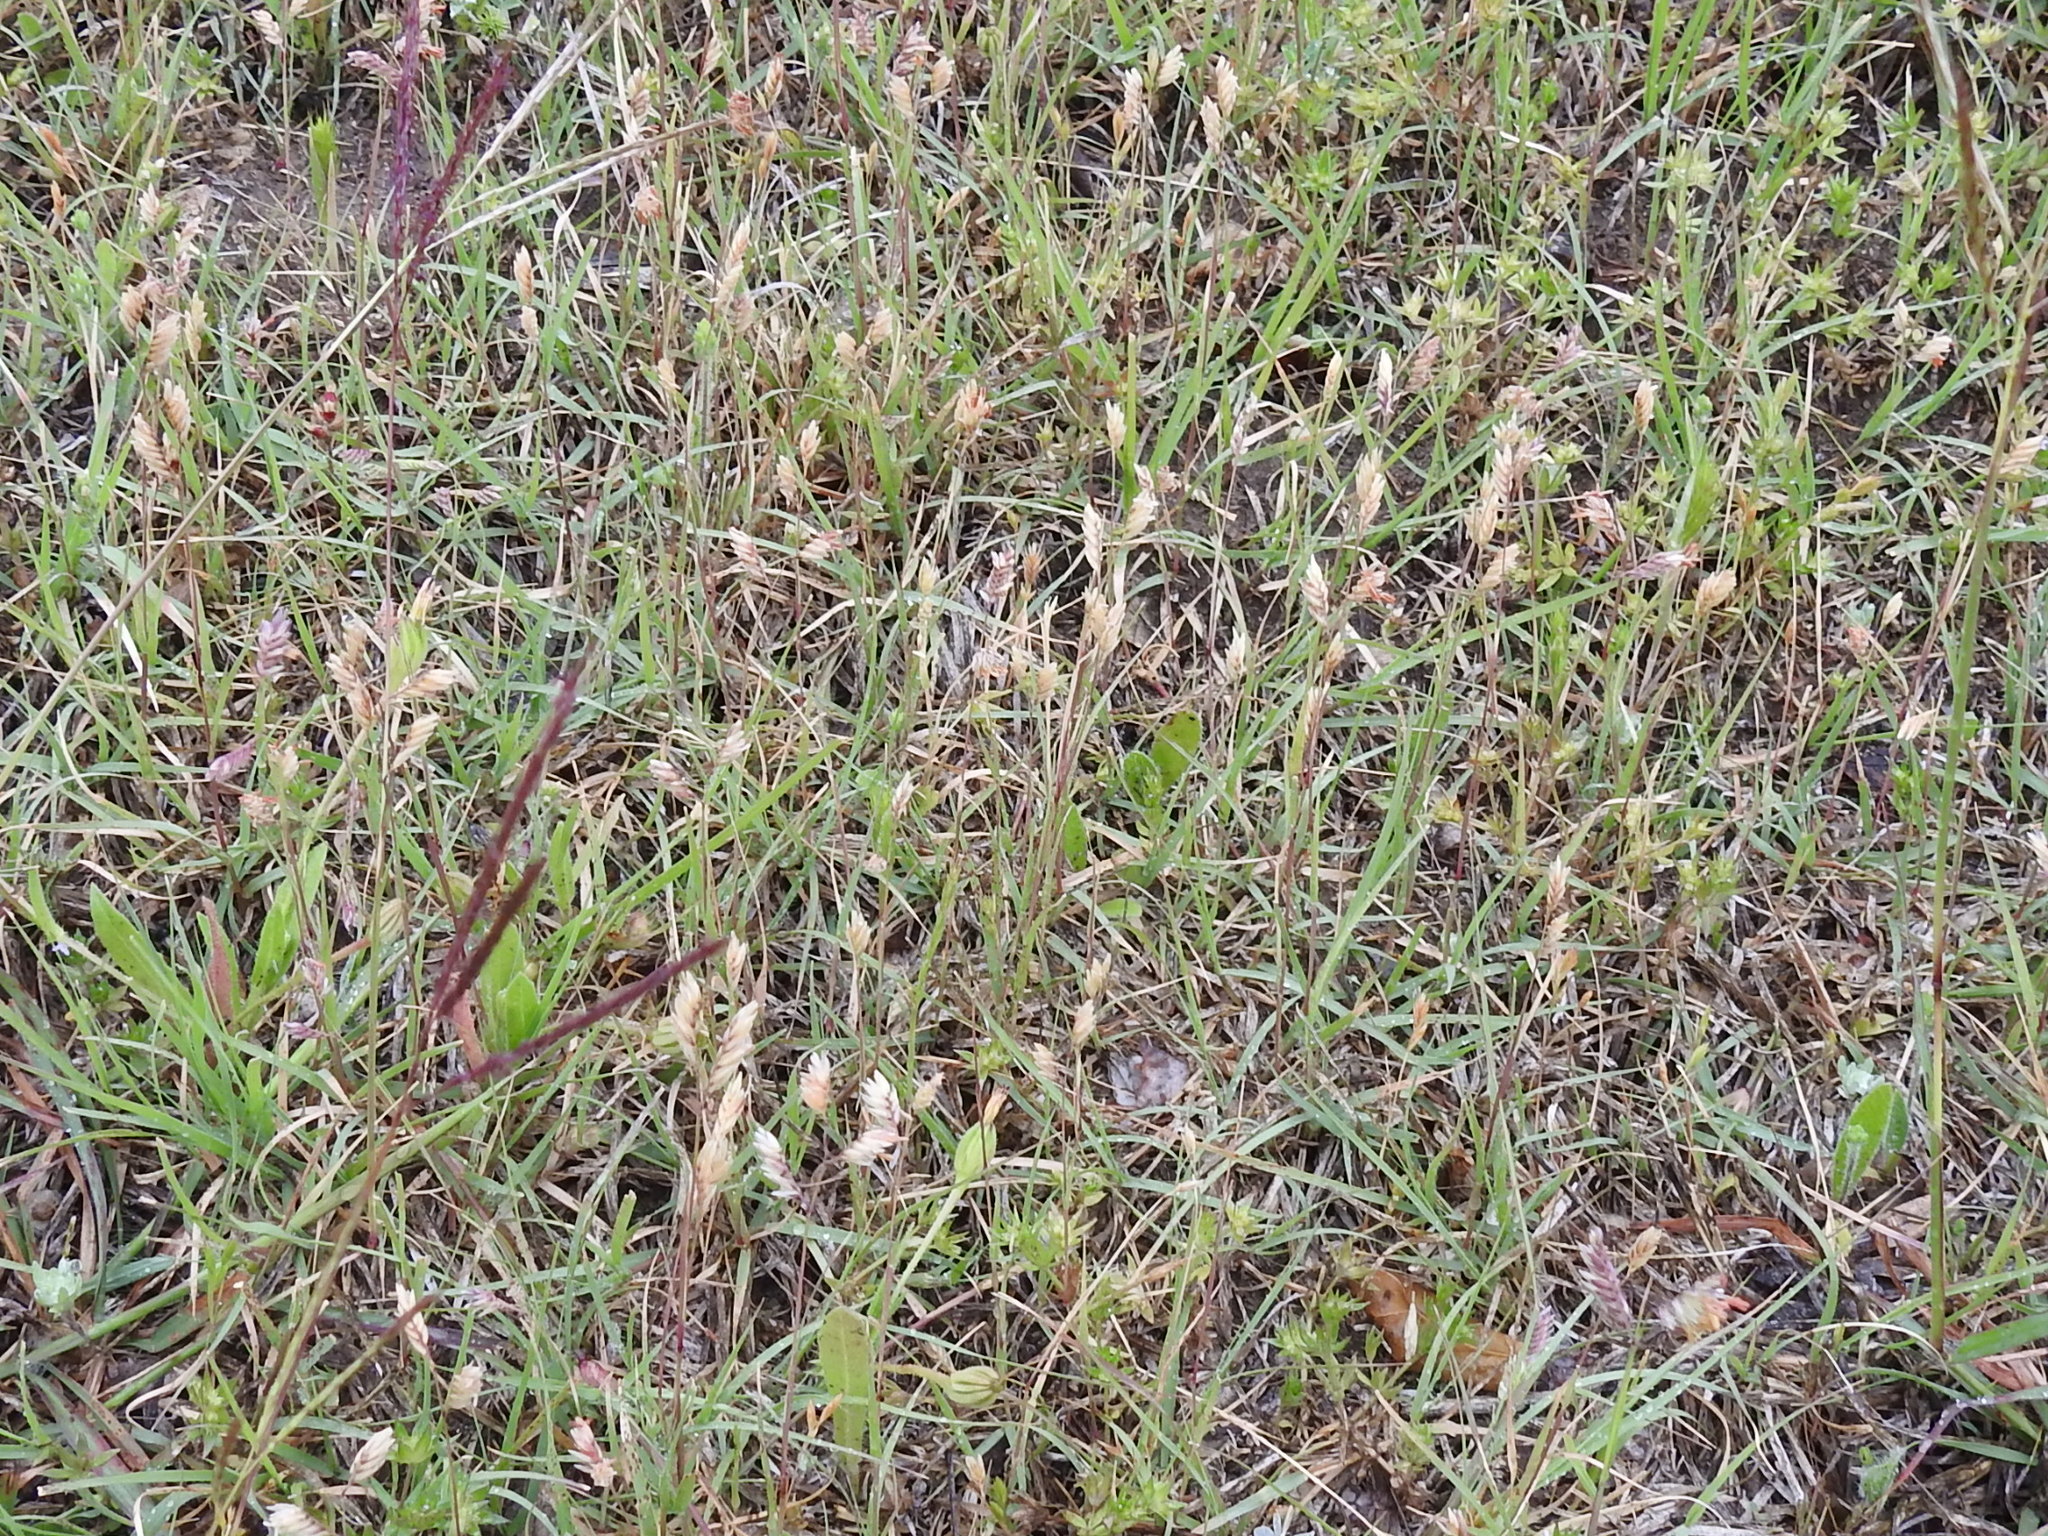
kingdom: Plantae
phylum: Tracheophyta
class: Liliopsida
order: Poales
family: Poaceae
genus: Bouteloua
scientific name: Bouteloua dactyloides
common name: Buffalo grass
